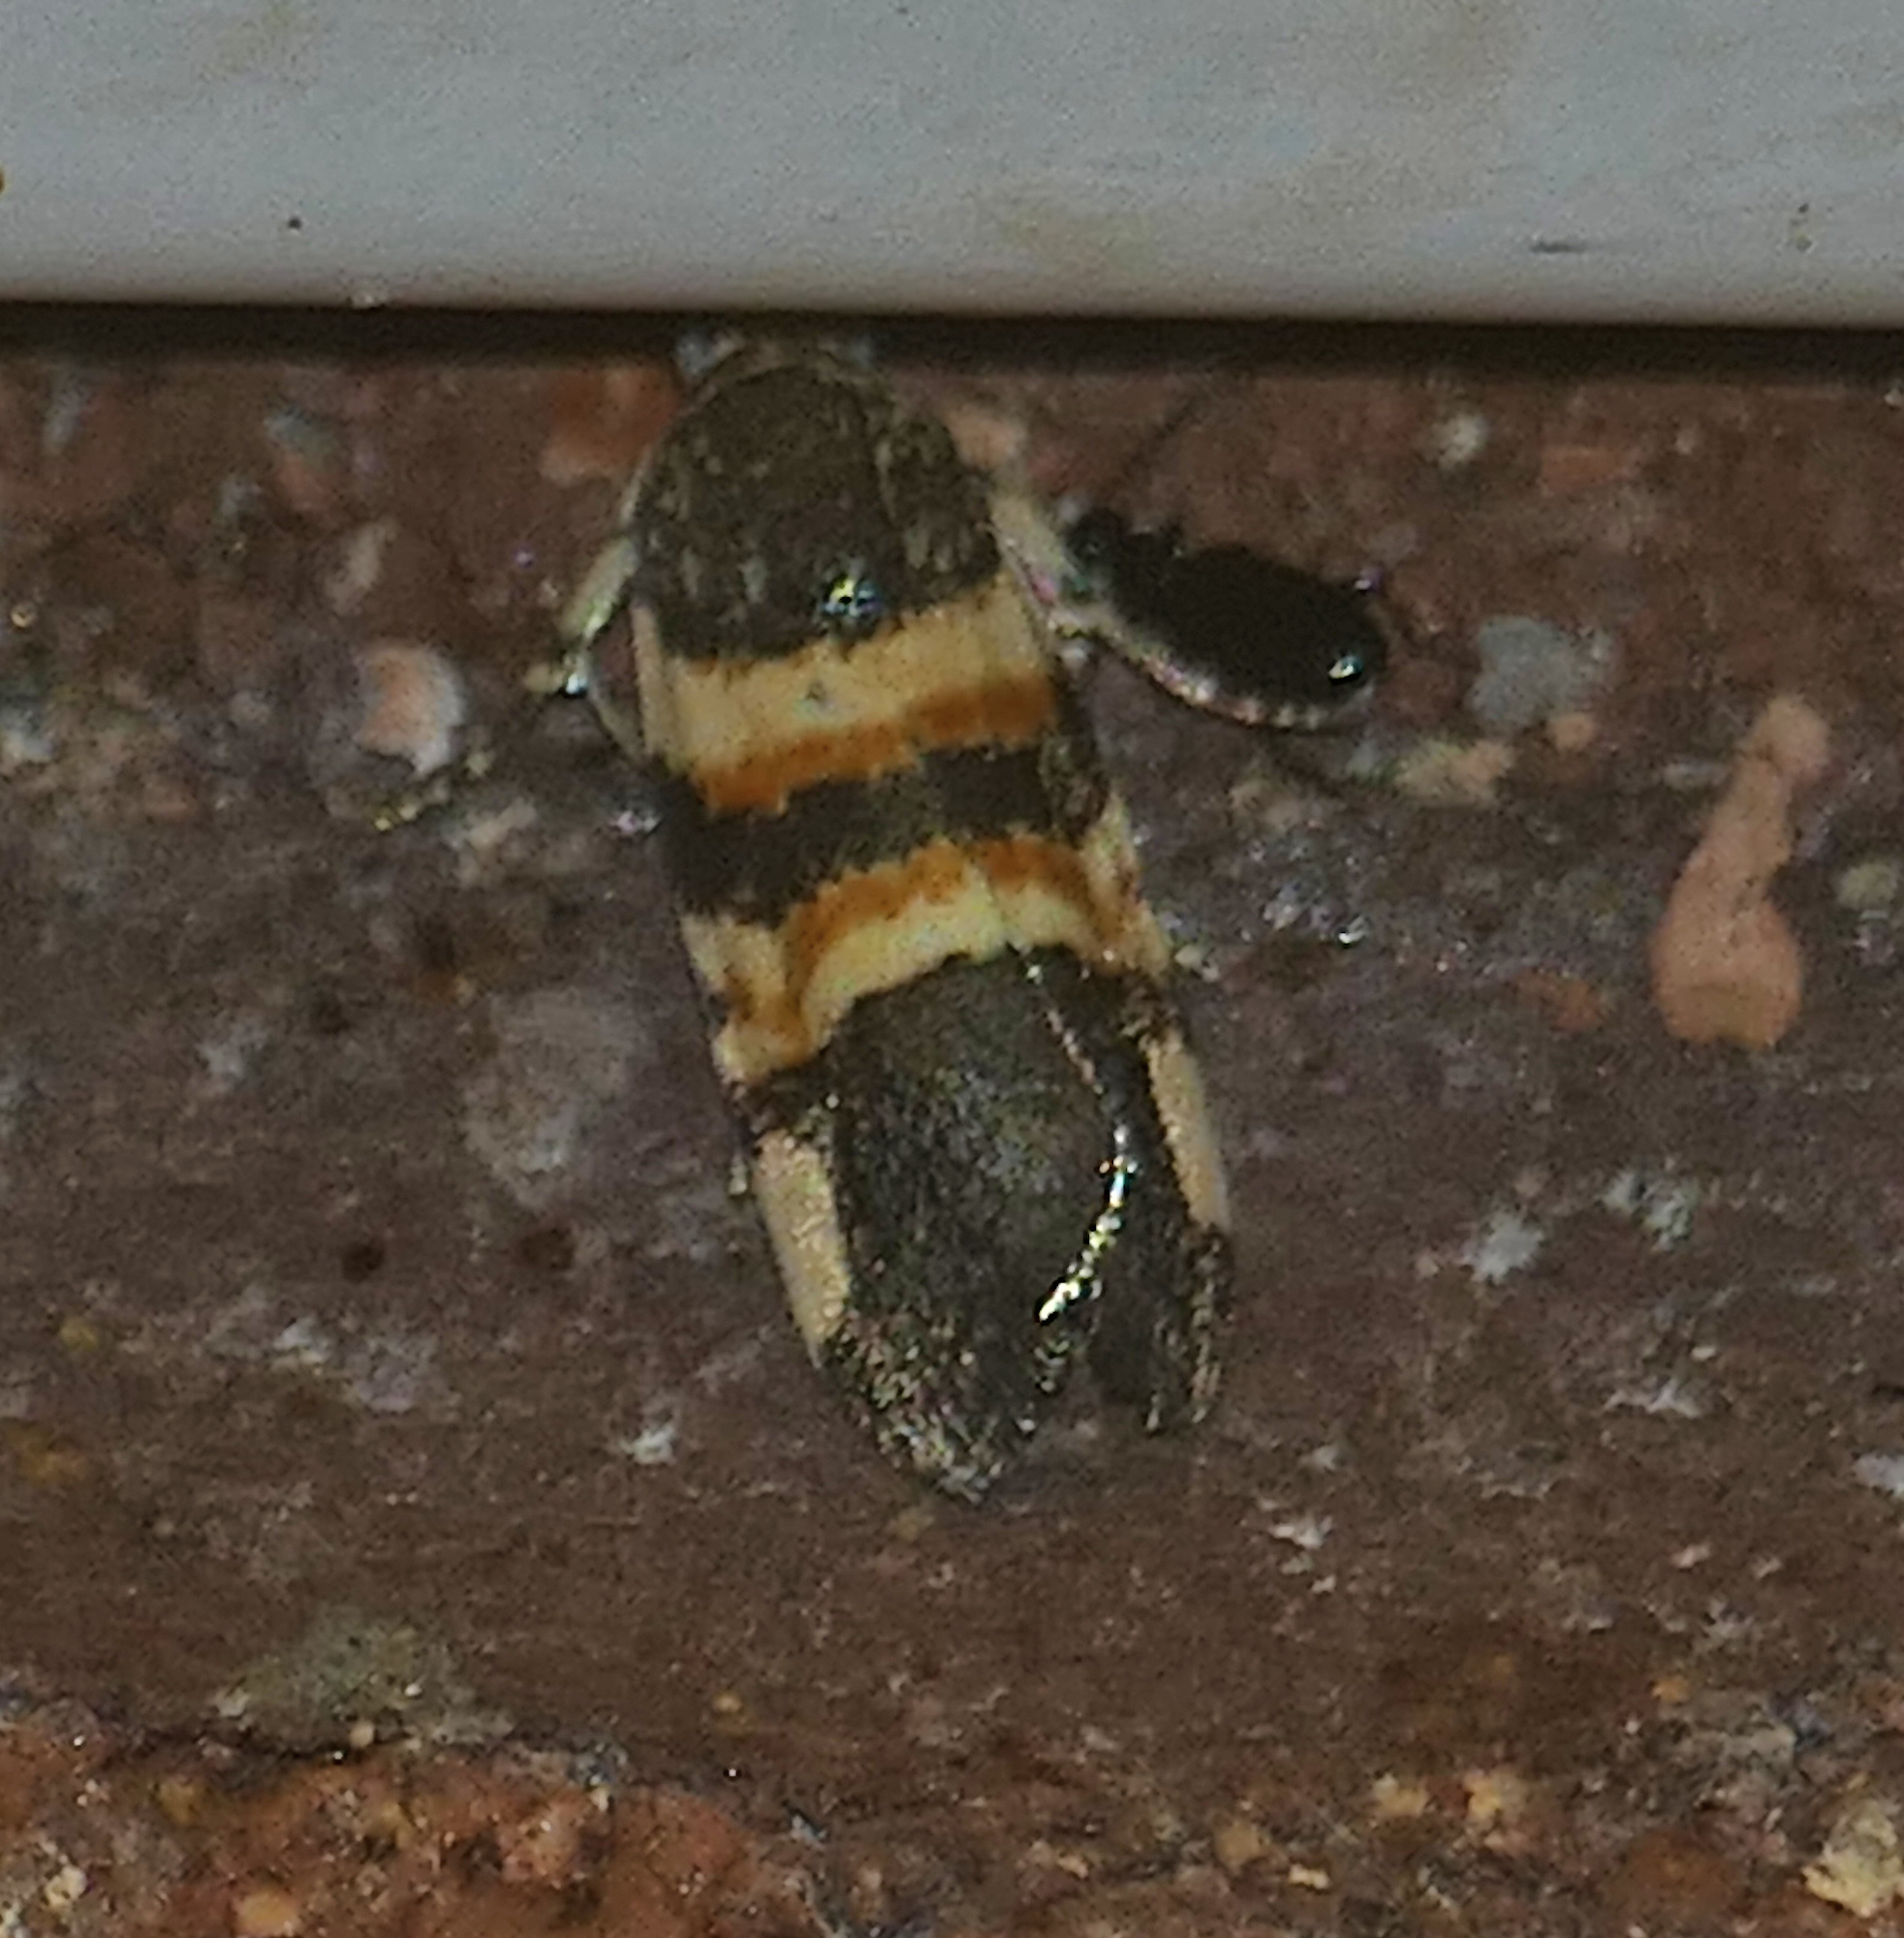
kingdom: Animalia
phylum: Arthropoda
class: Insecta
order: Lepidoptera
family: Noctuidae
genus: Spragueia
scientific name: Spragueia funeralis
